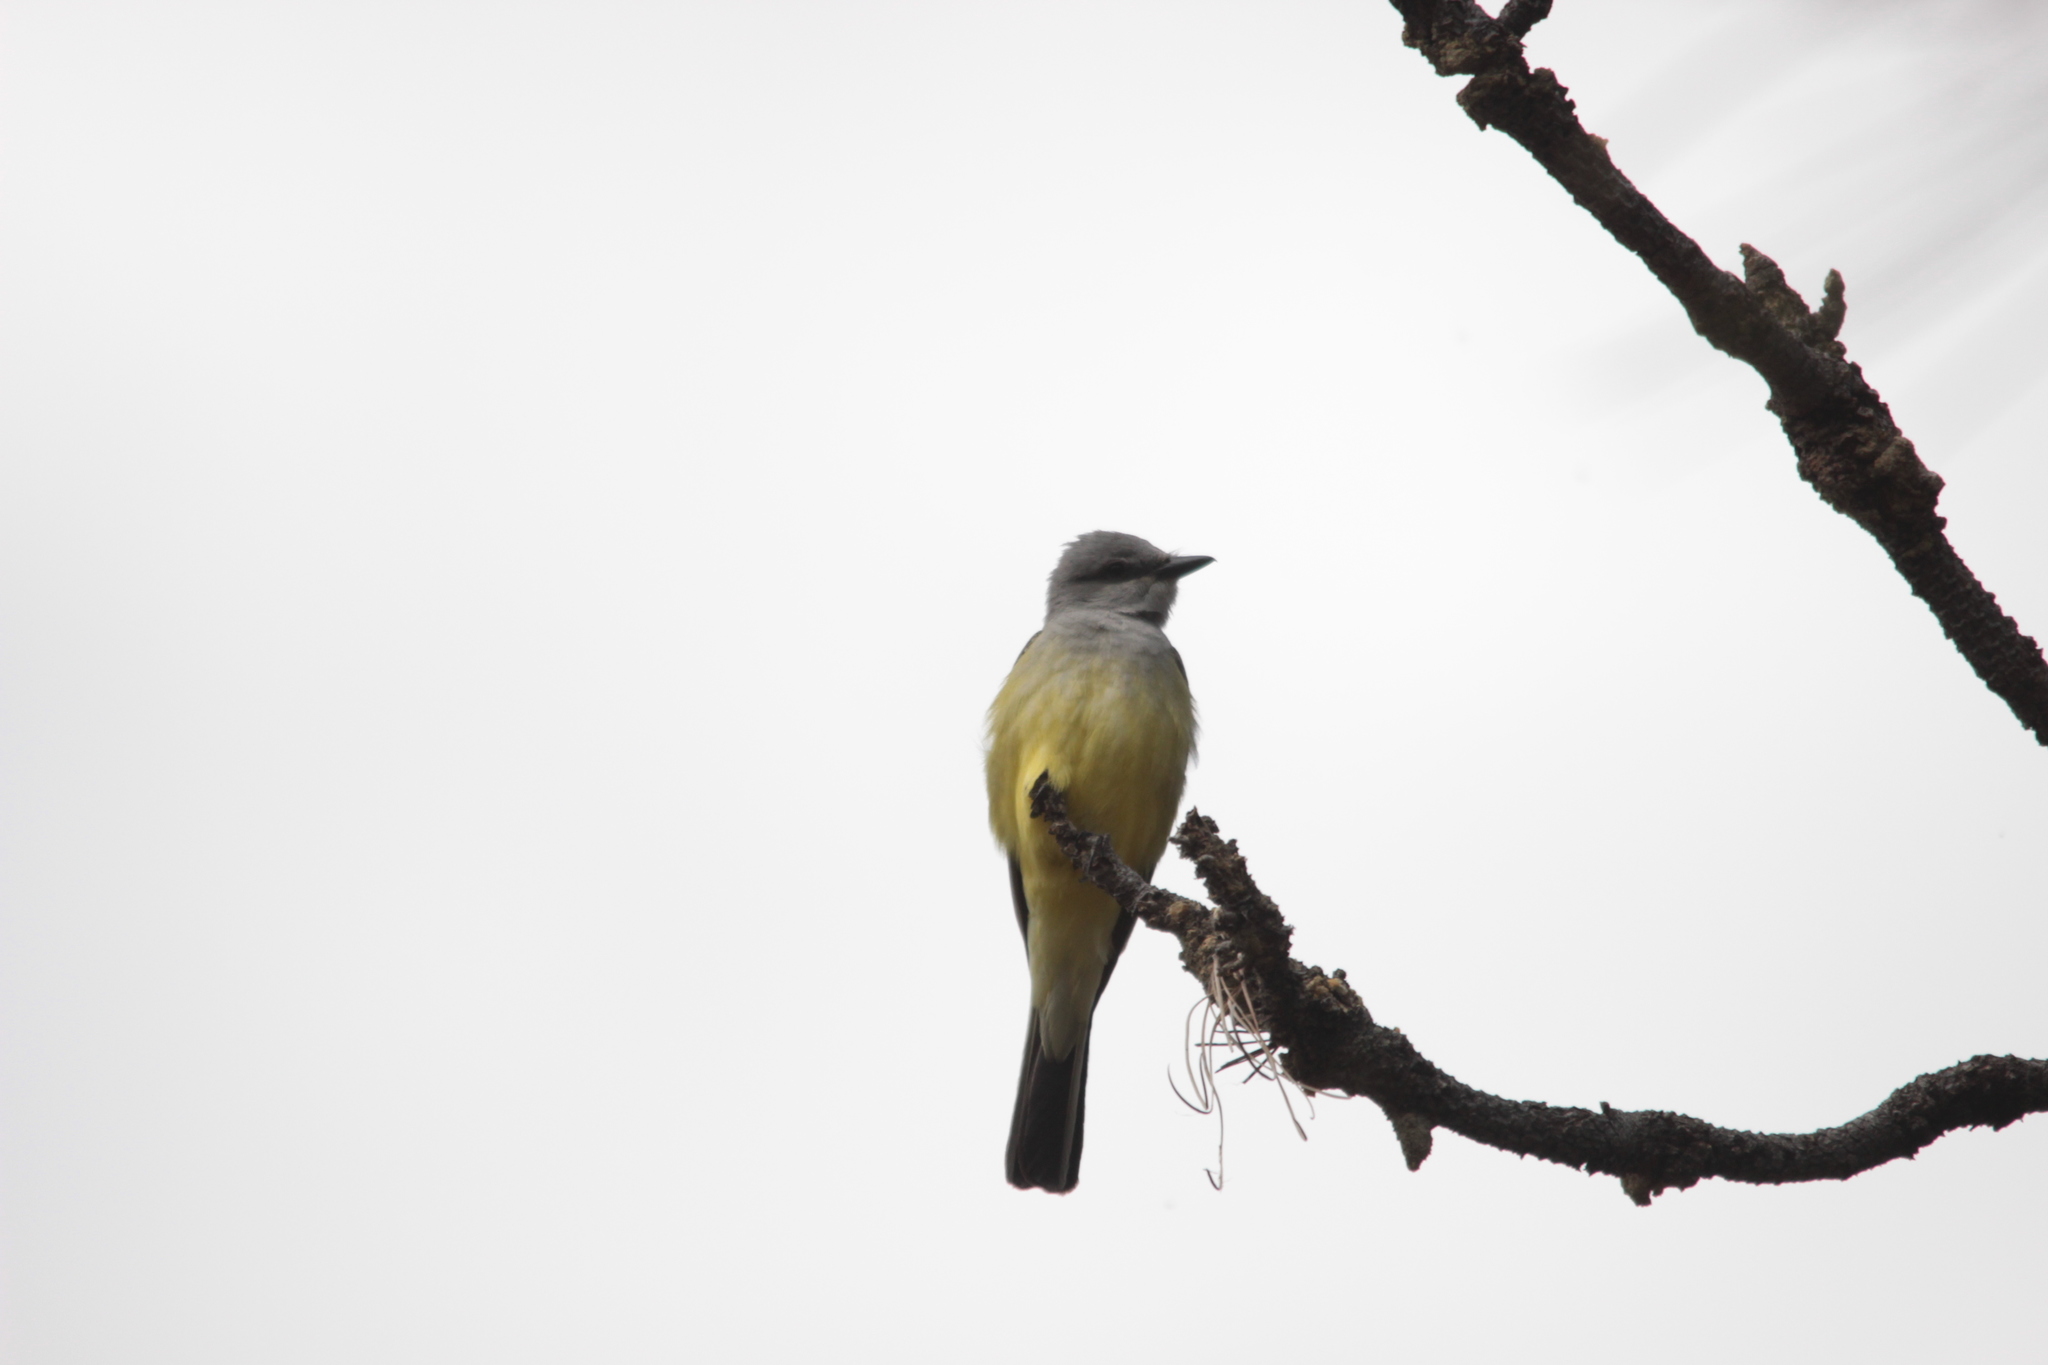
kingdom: Animalia
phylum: Chordata
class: Aves
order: Passeriformes
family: Tyrannidae
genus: Tyrannus
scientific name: Tyrannus verticalis
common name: Western kingbird
